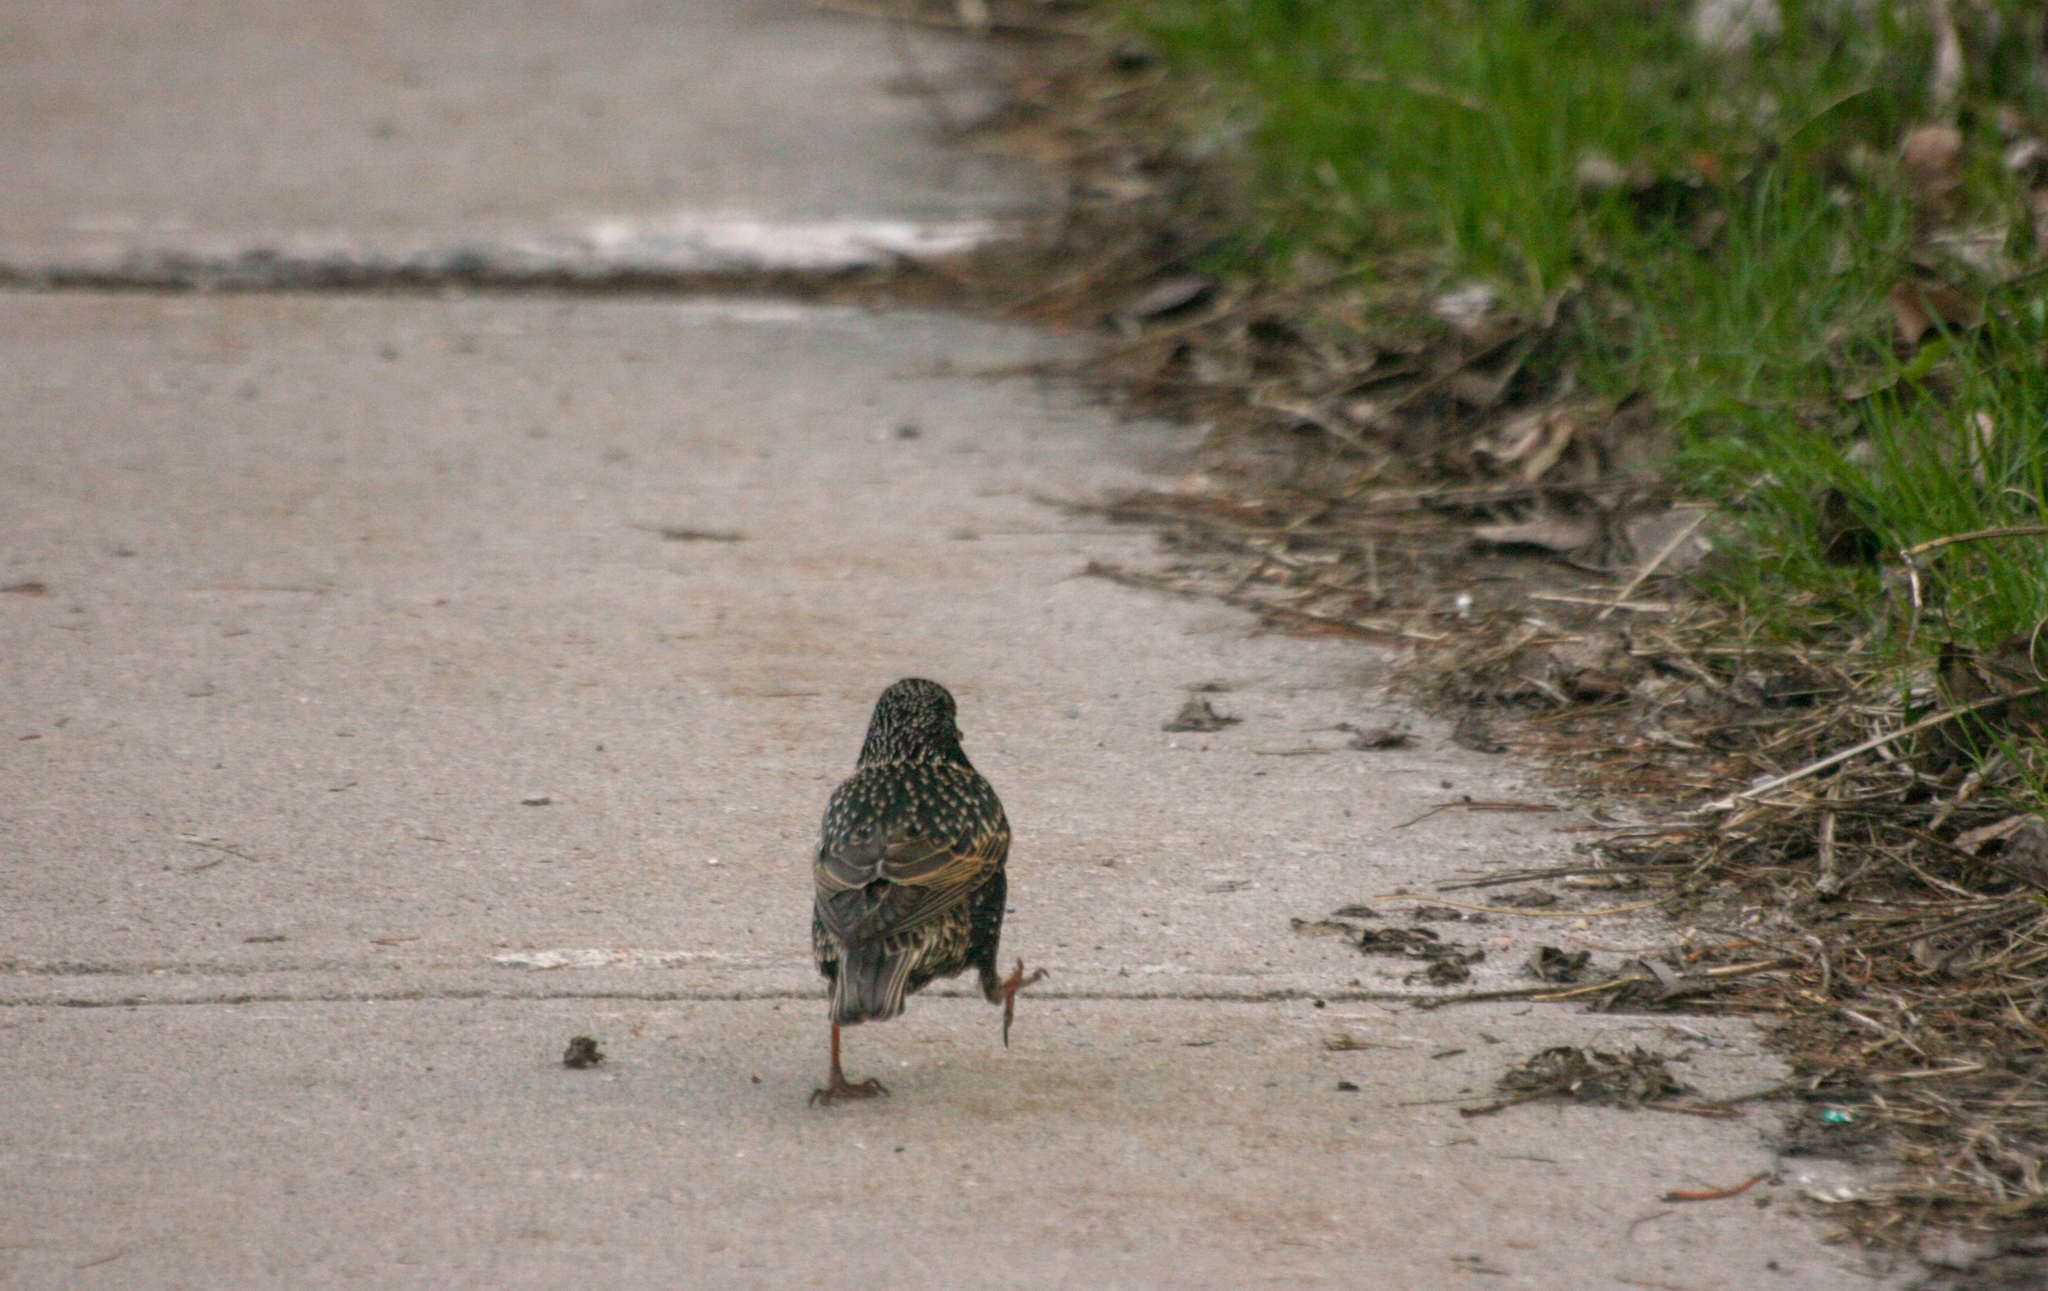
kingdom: Animalia
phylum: Chordata
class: Aves
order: Passeriformes
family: Sturnidae
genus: Sturnus
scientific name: Sturnus vulgaris
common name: Common starling
